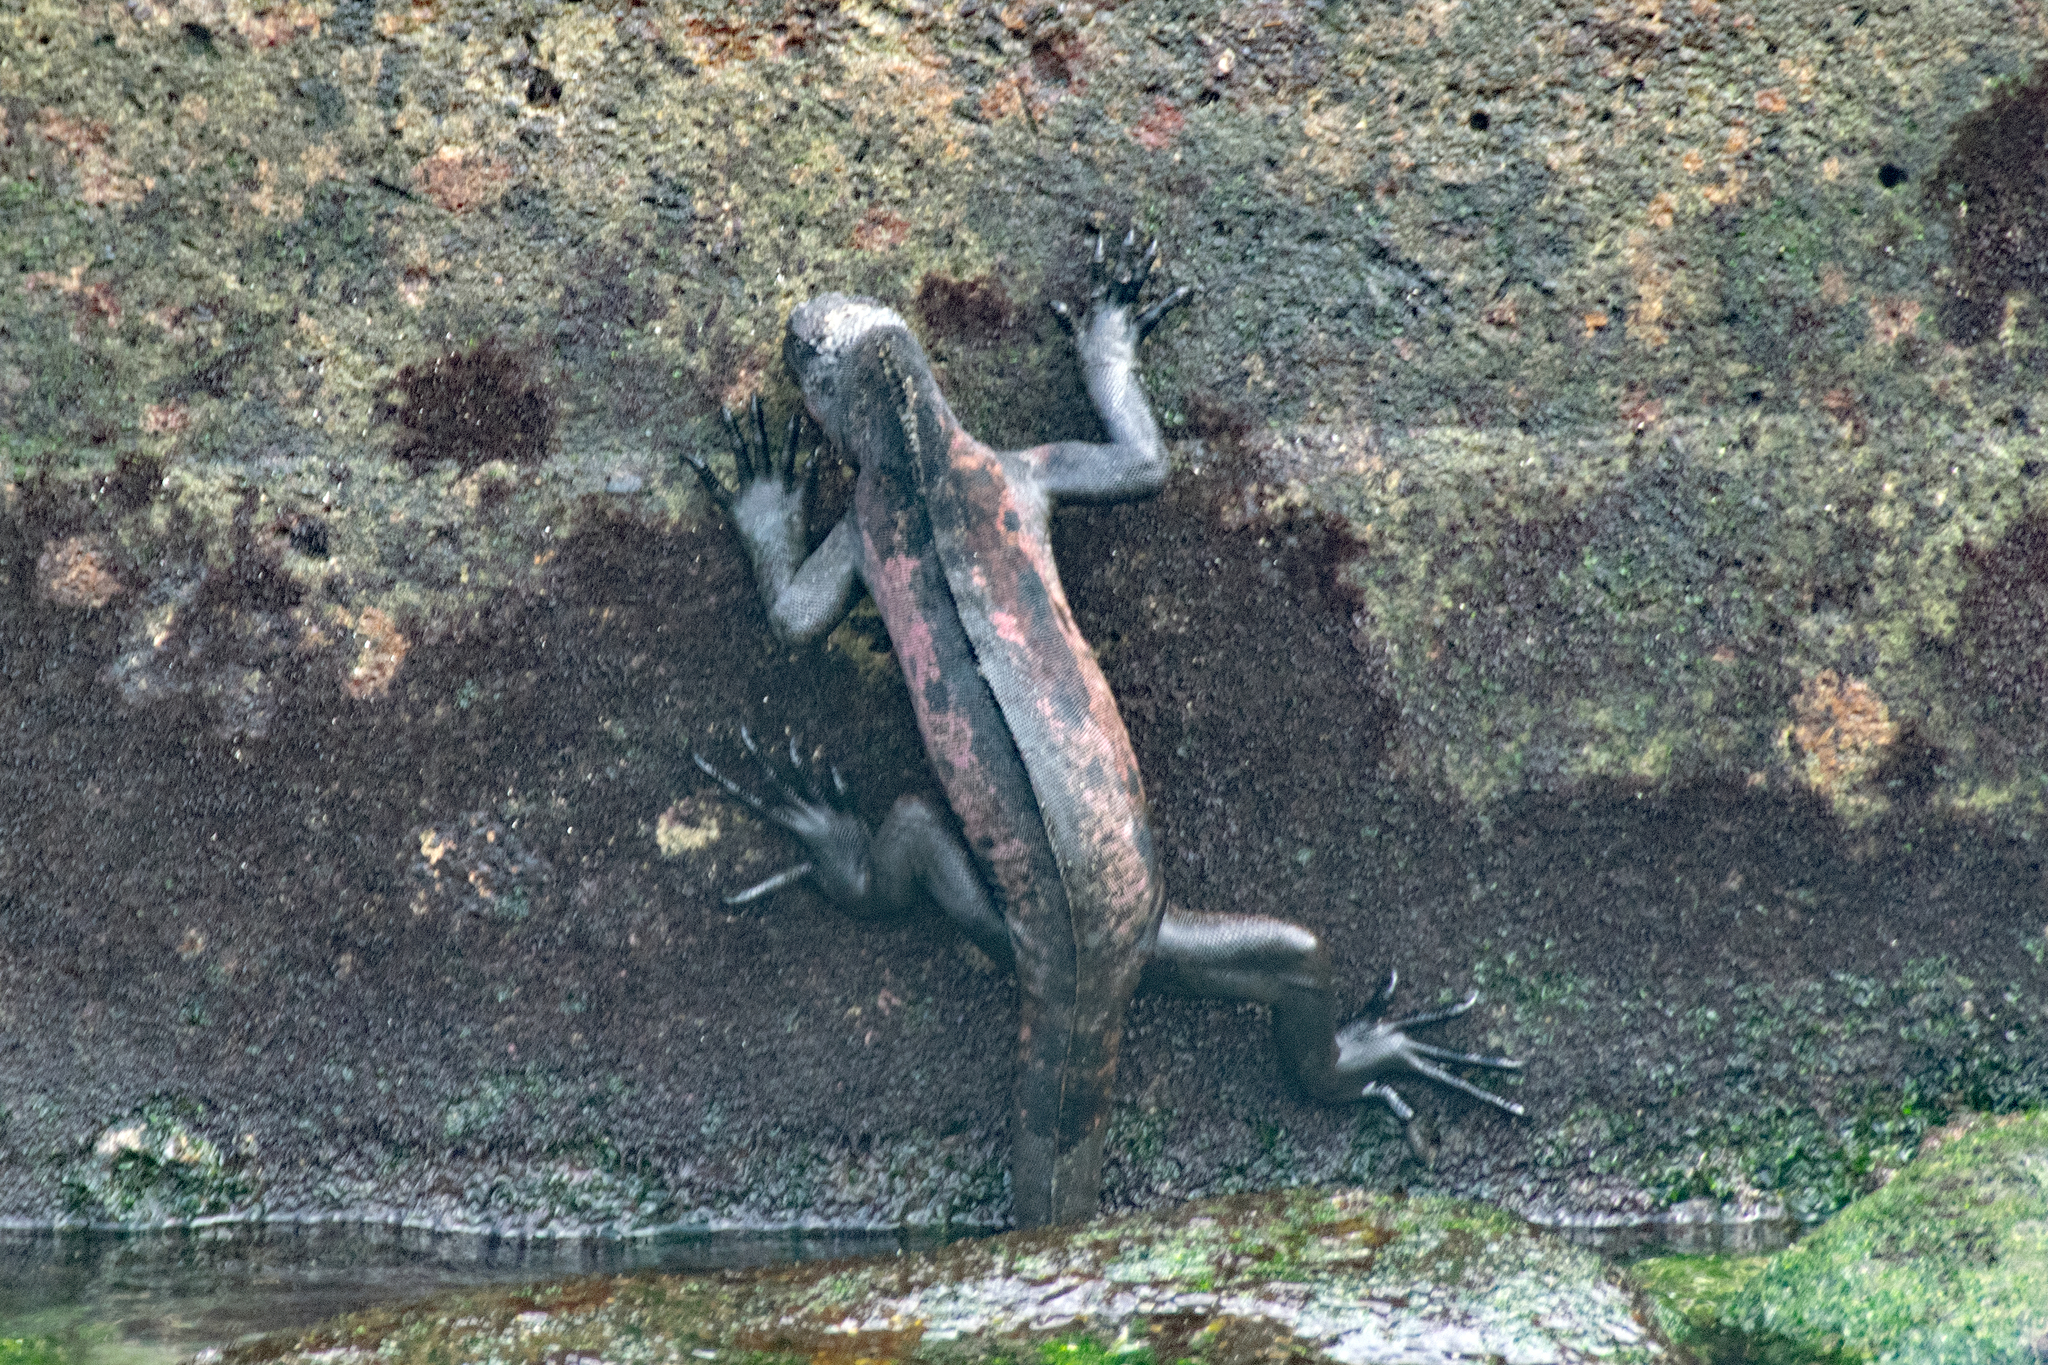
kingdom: Animalia
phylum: Chordata
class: Squamata
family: Iguanidae
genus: Amblyrhynchus
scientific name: Amblyrhynchus cristatus
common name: Marine iguana
